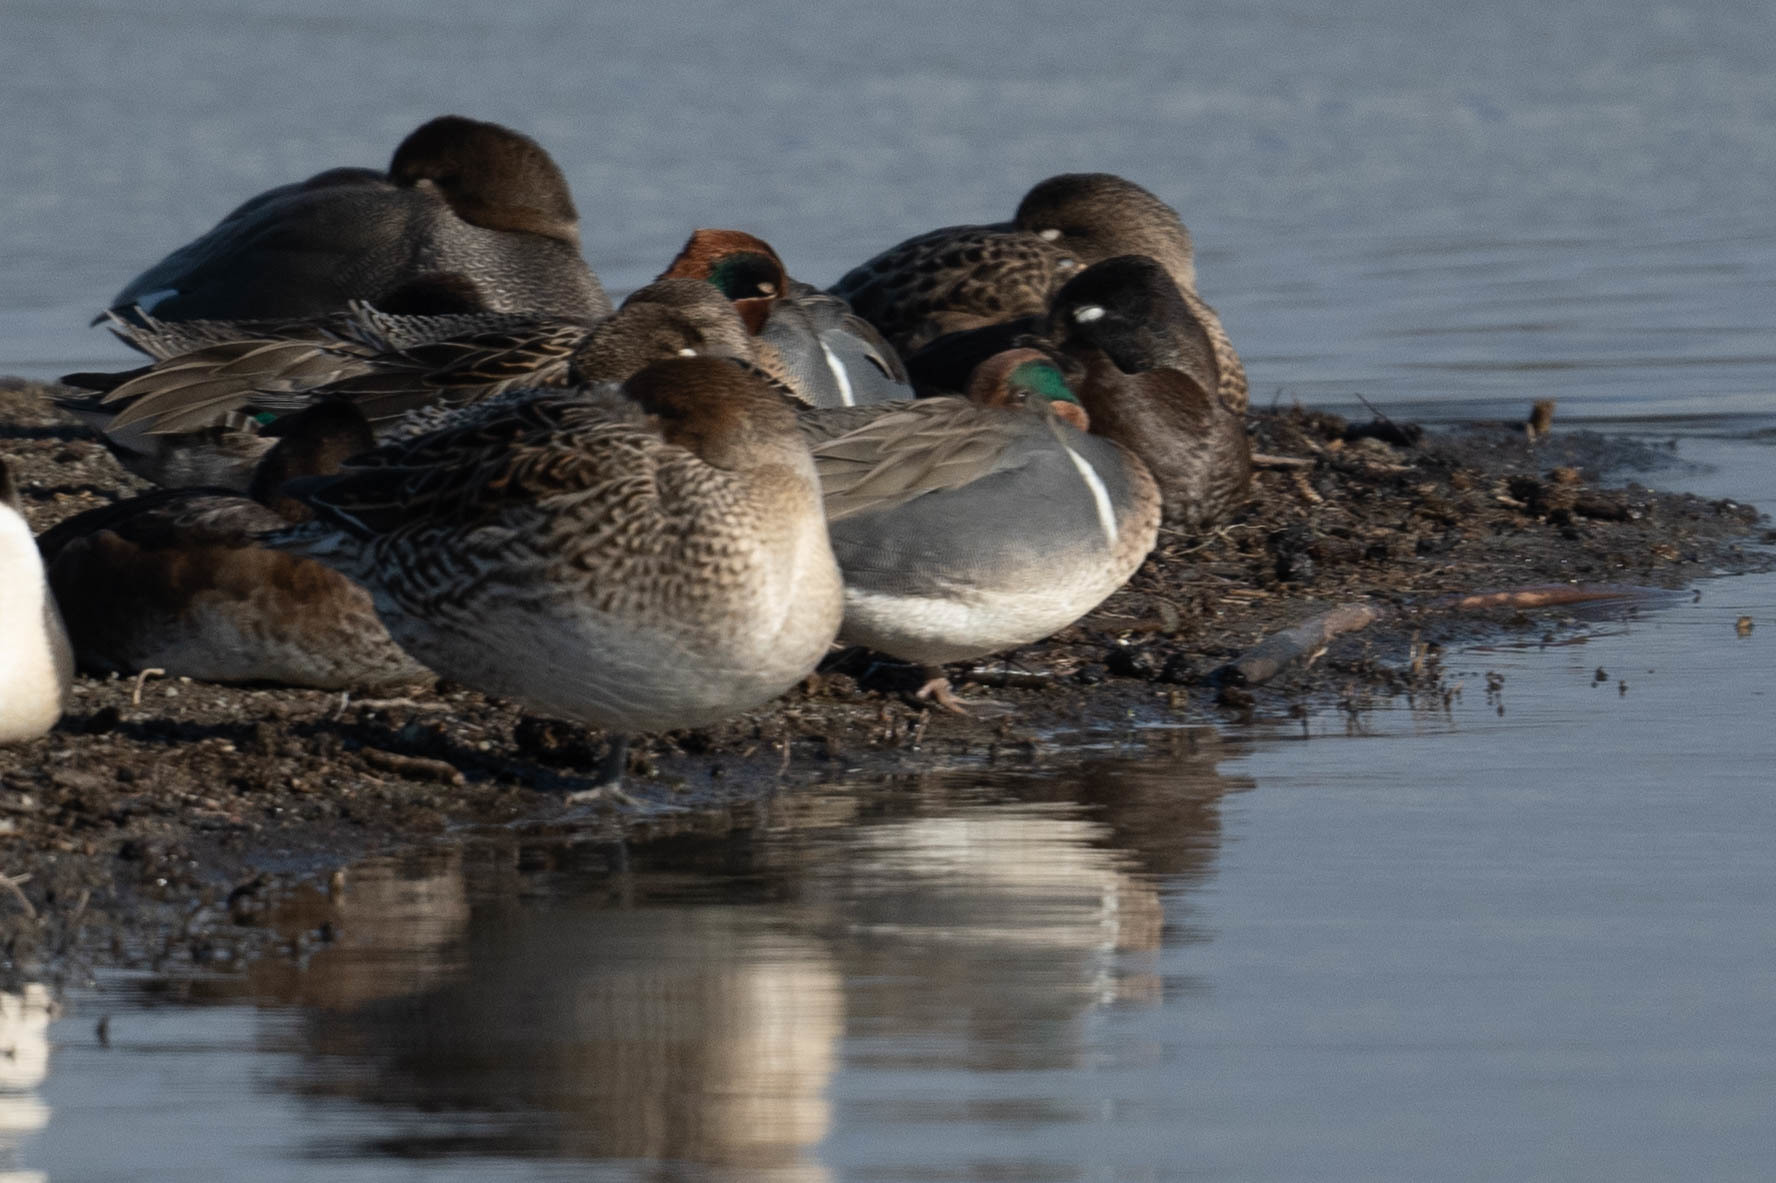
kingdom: Animalia
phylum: Chordata
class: Aves
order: Anseriformes
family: Anatidae
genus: Anas
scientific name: Anas crecca
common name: Eurasian teal
